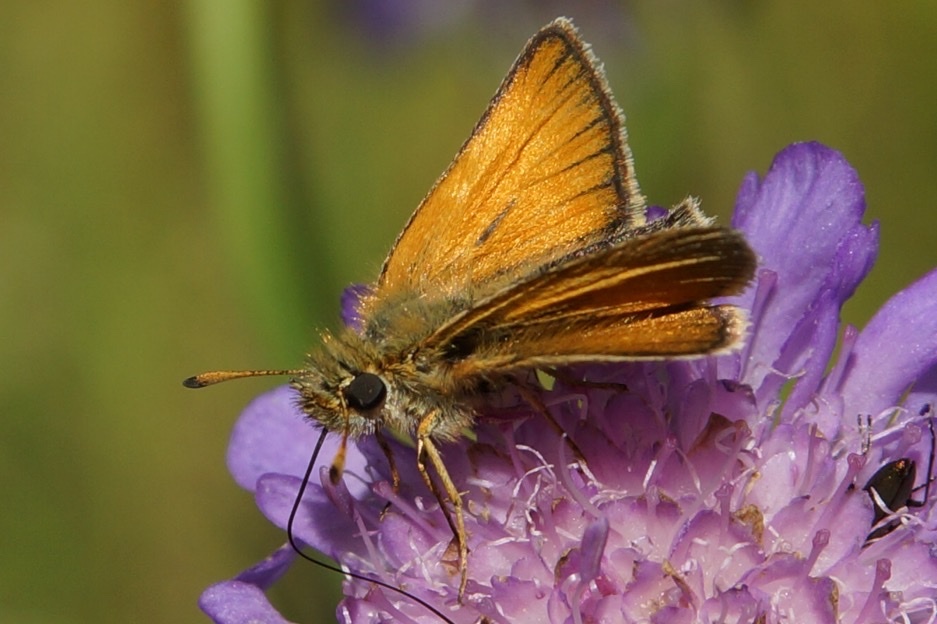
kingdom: Animalia
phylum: Arthropoda
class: Insecta
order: Lepidoptera
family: Hesperiidae
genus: Thymelicus
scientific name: Thymelicus lineola
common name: Essex skipper
